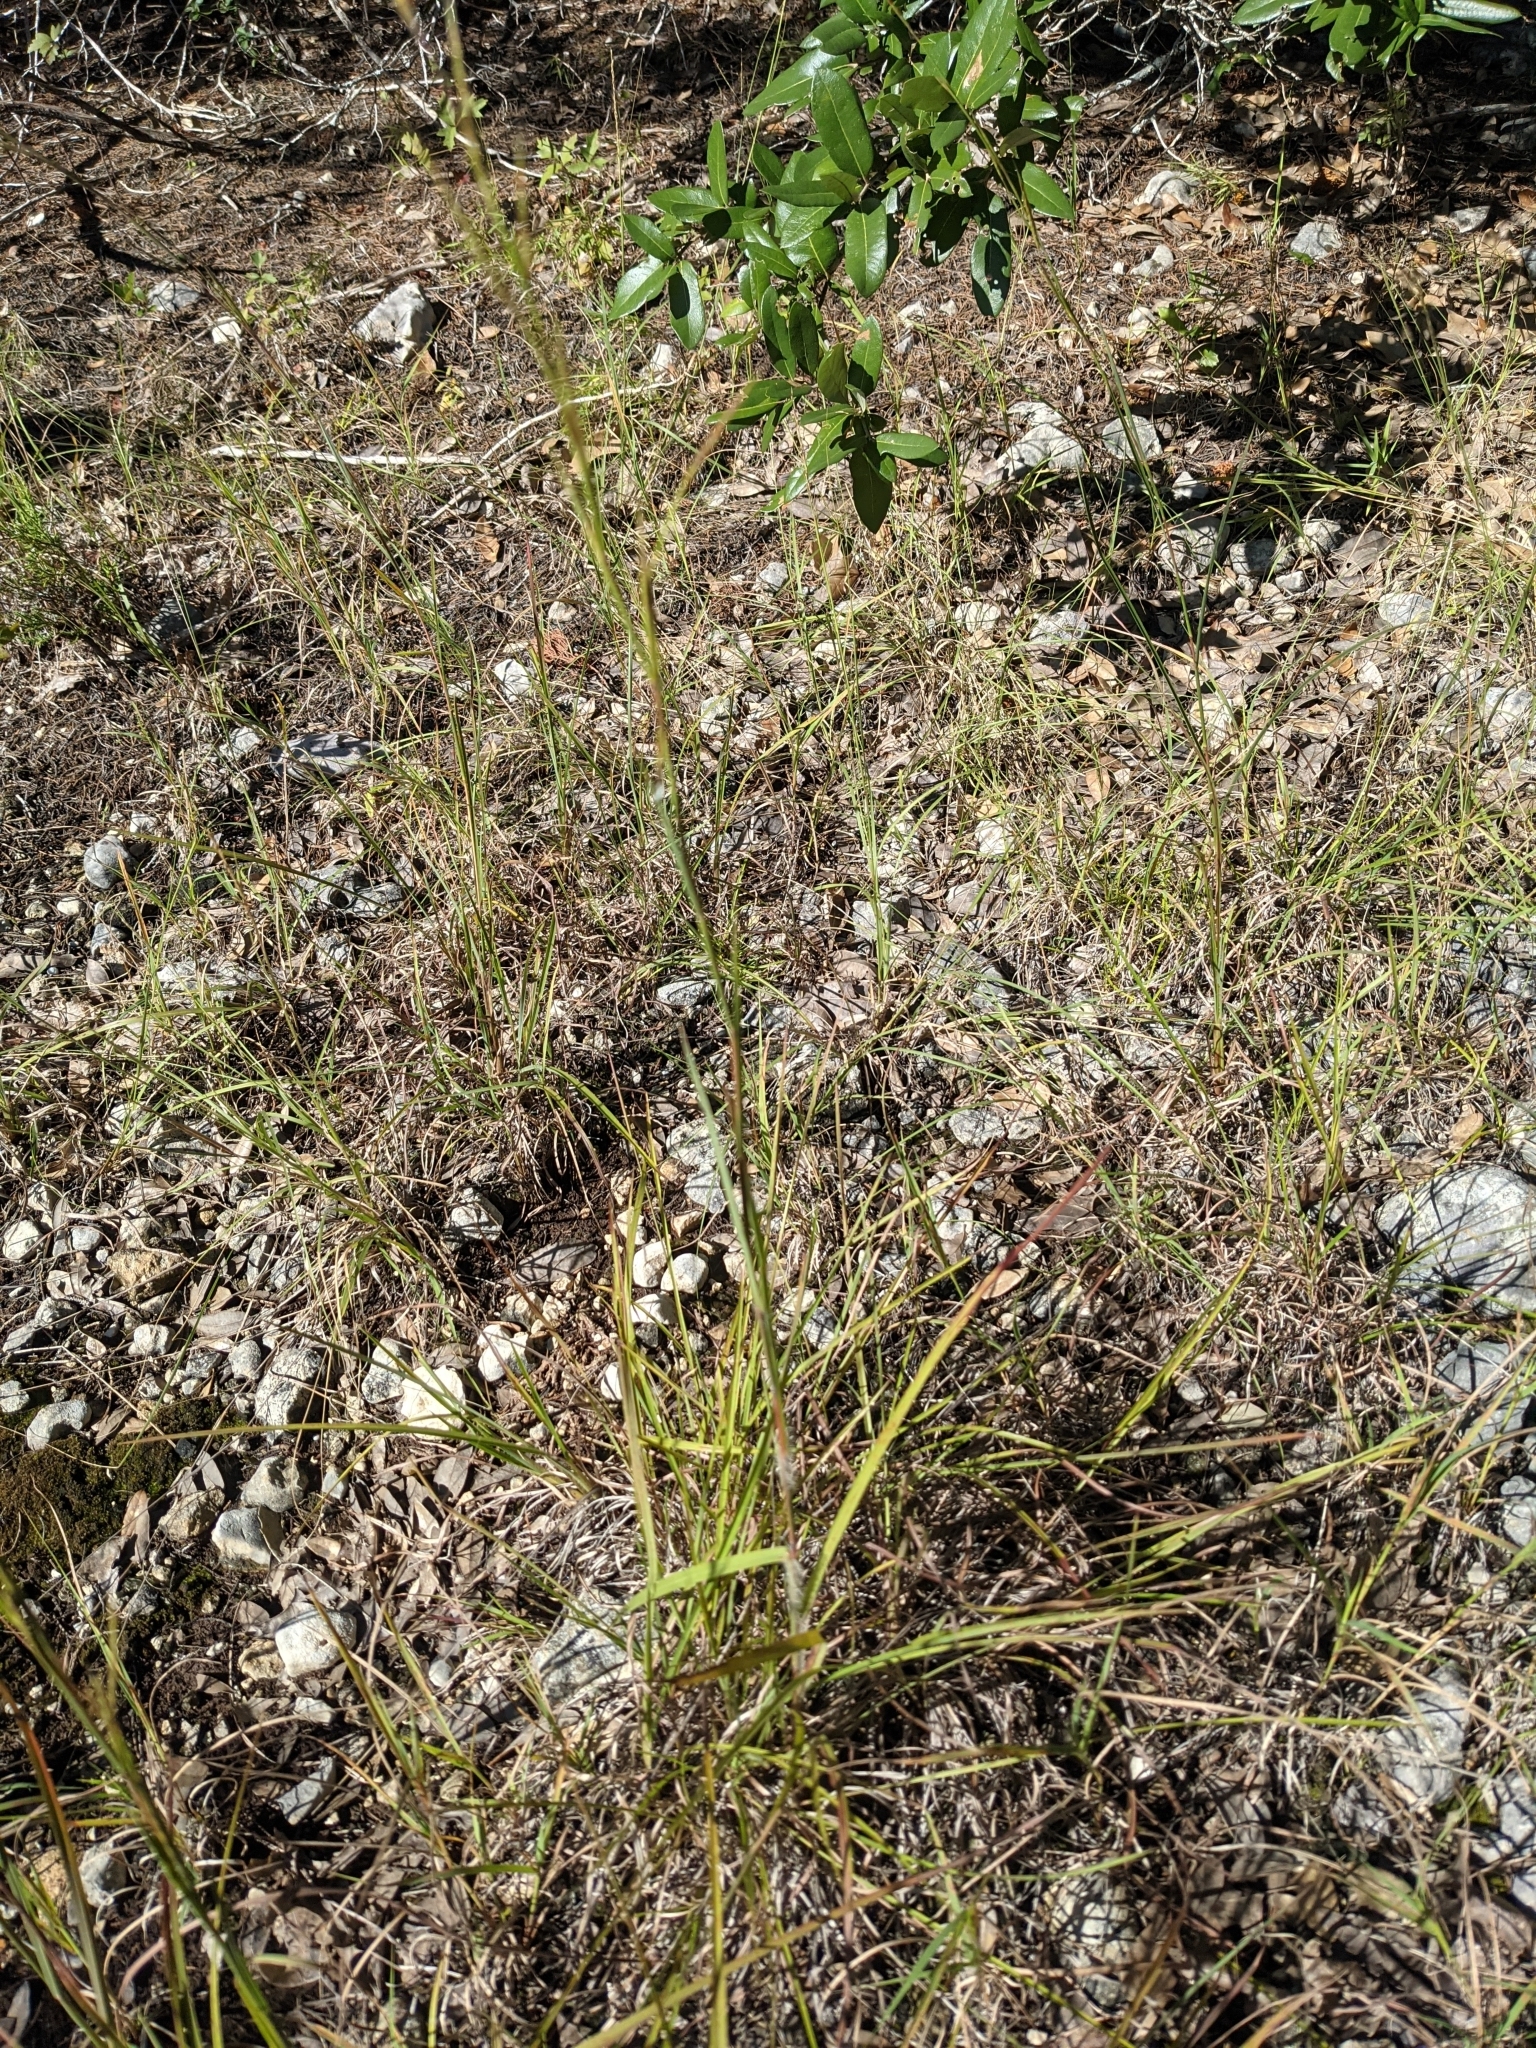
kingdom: Plantae
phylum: Tracheophyta
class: Liliopsida
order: Poales
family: Poaceae
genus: Schizachyrium
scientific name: Schizachyrium scoparium
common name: Little bluestem
